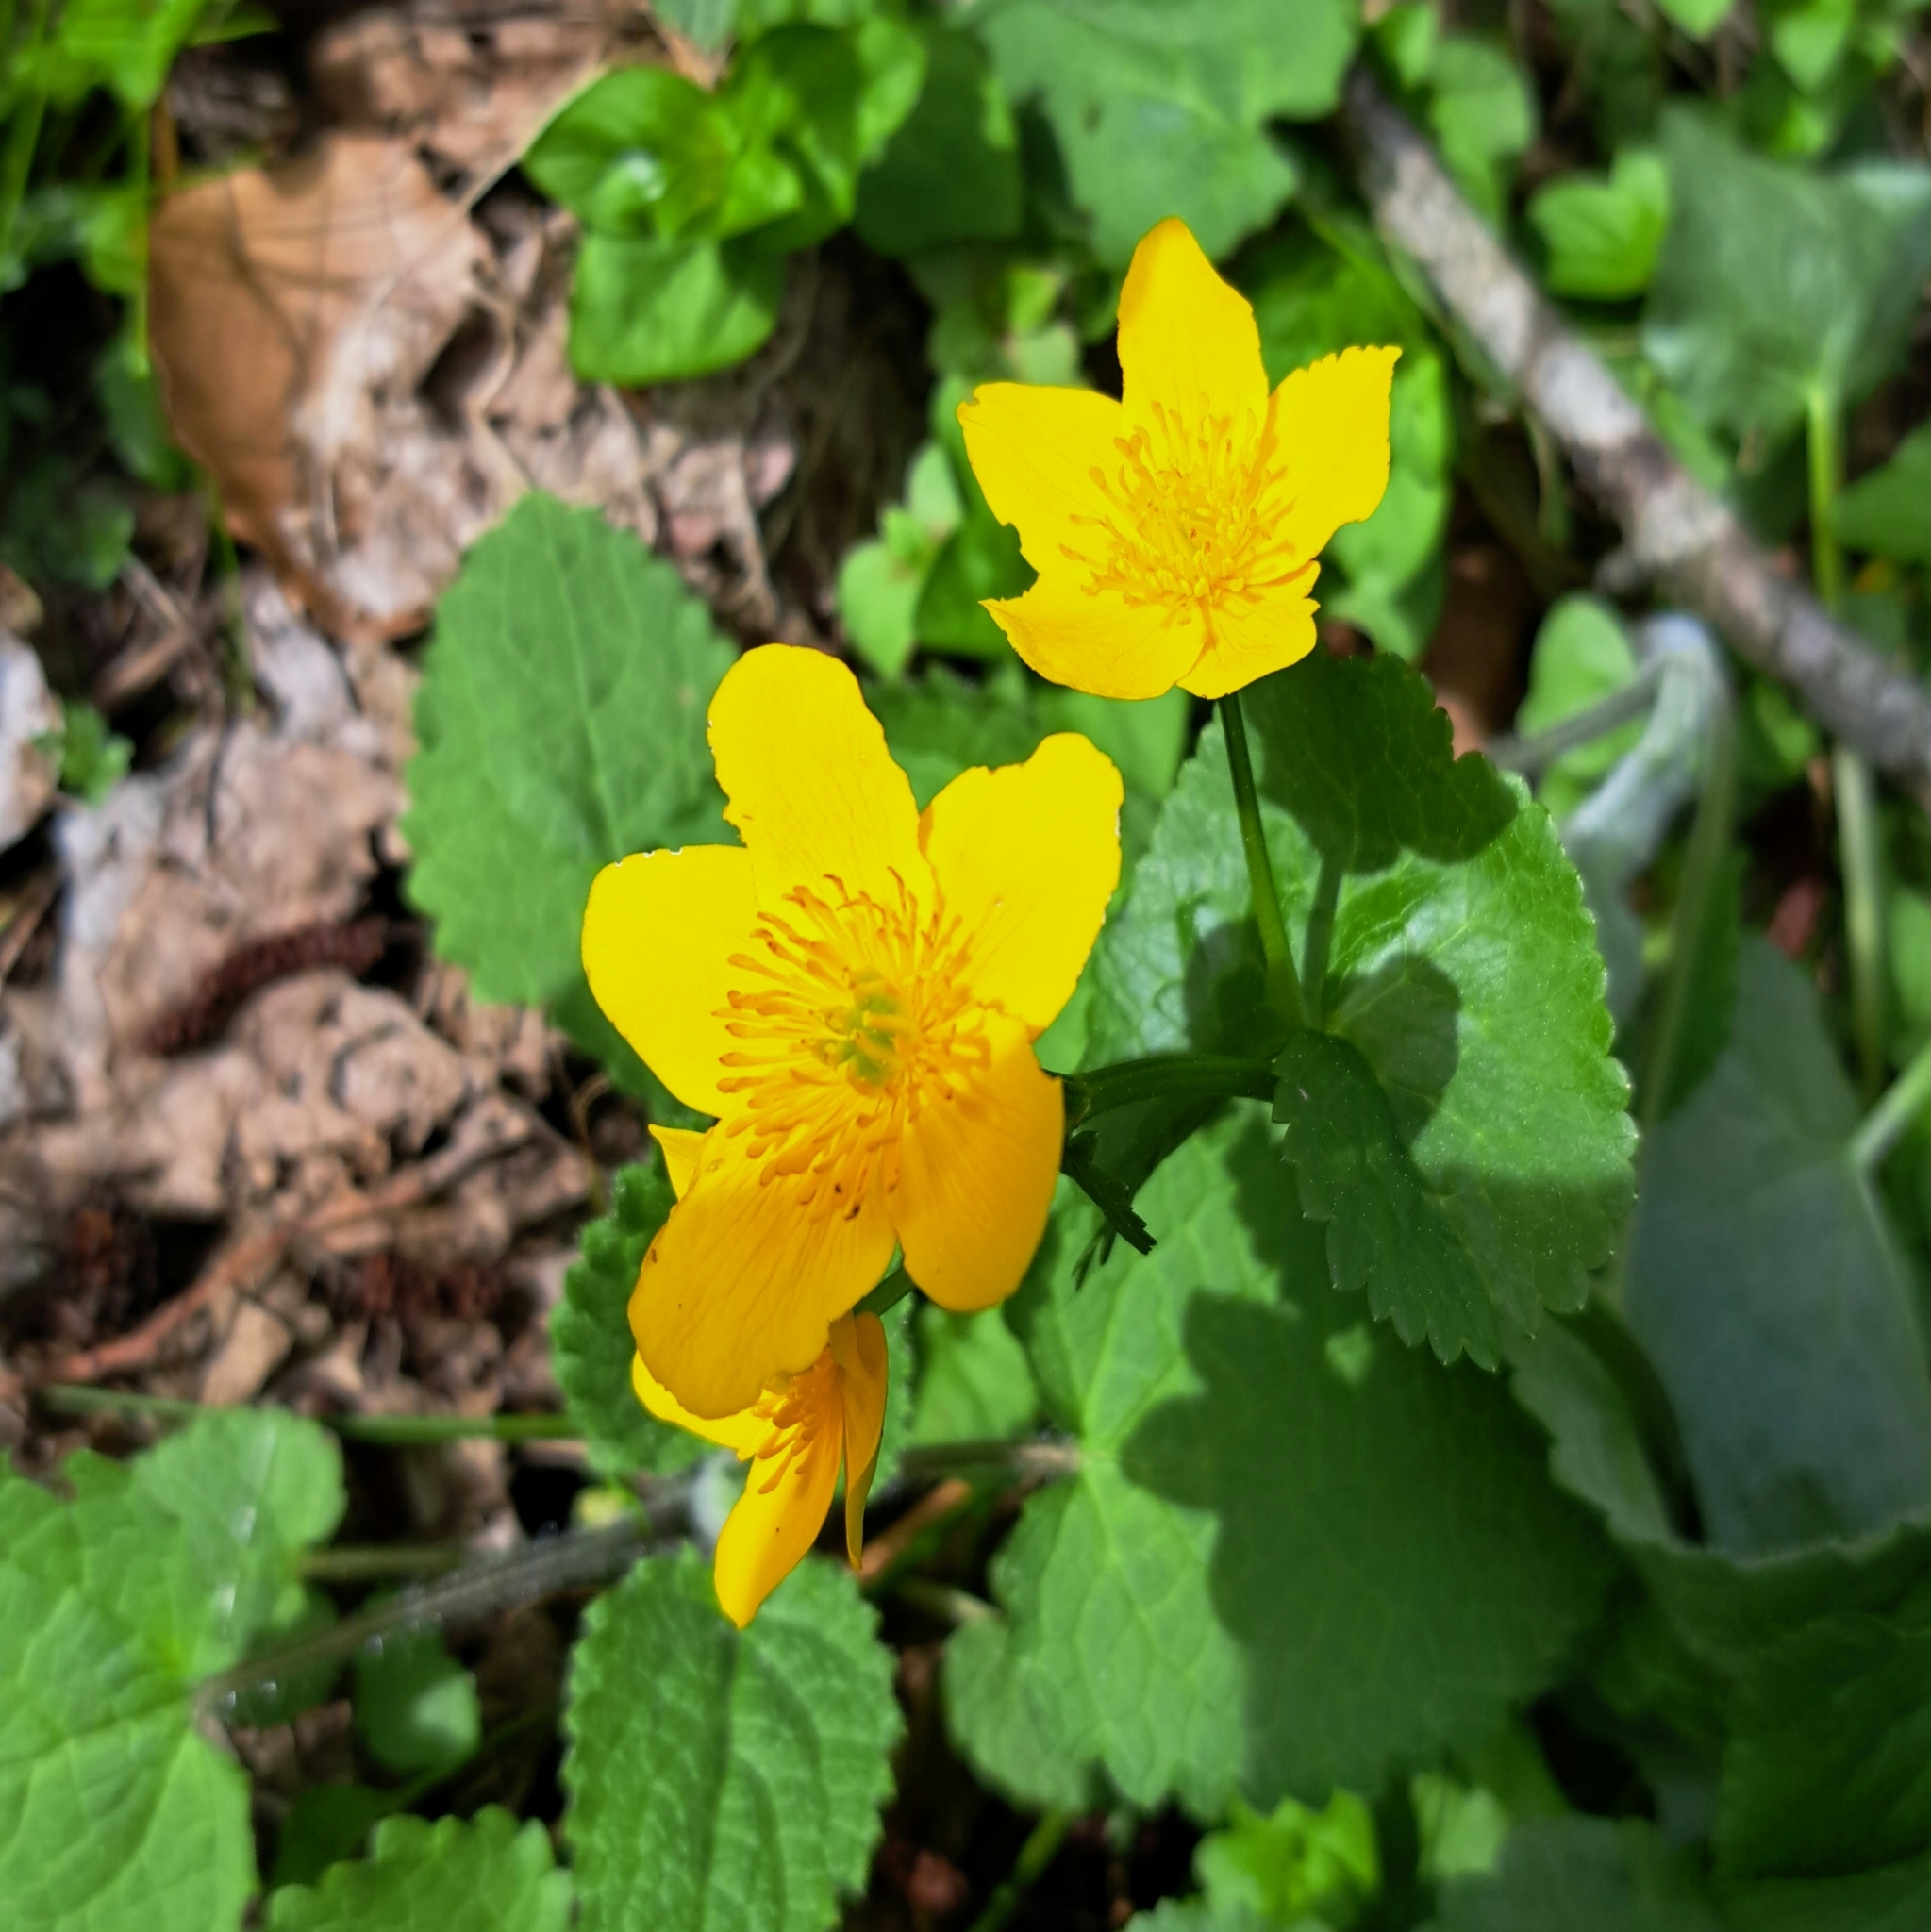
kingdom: Plantae
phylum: Tracheophyta
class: Magnoliopsida
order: Ranunculales
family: Ranunculaceae
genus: Caltha
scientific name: Caltha palustris
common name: Marsh marigold
